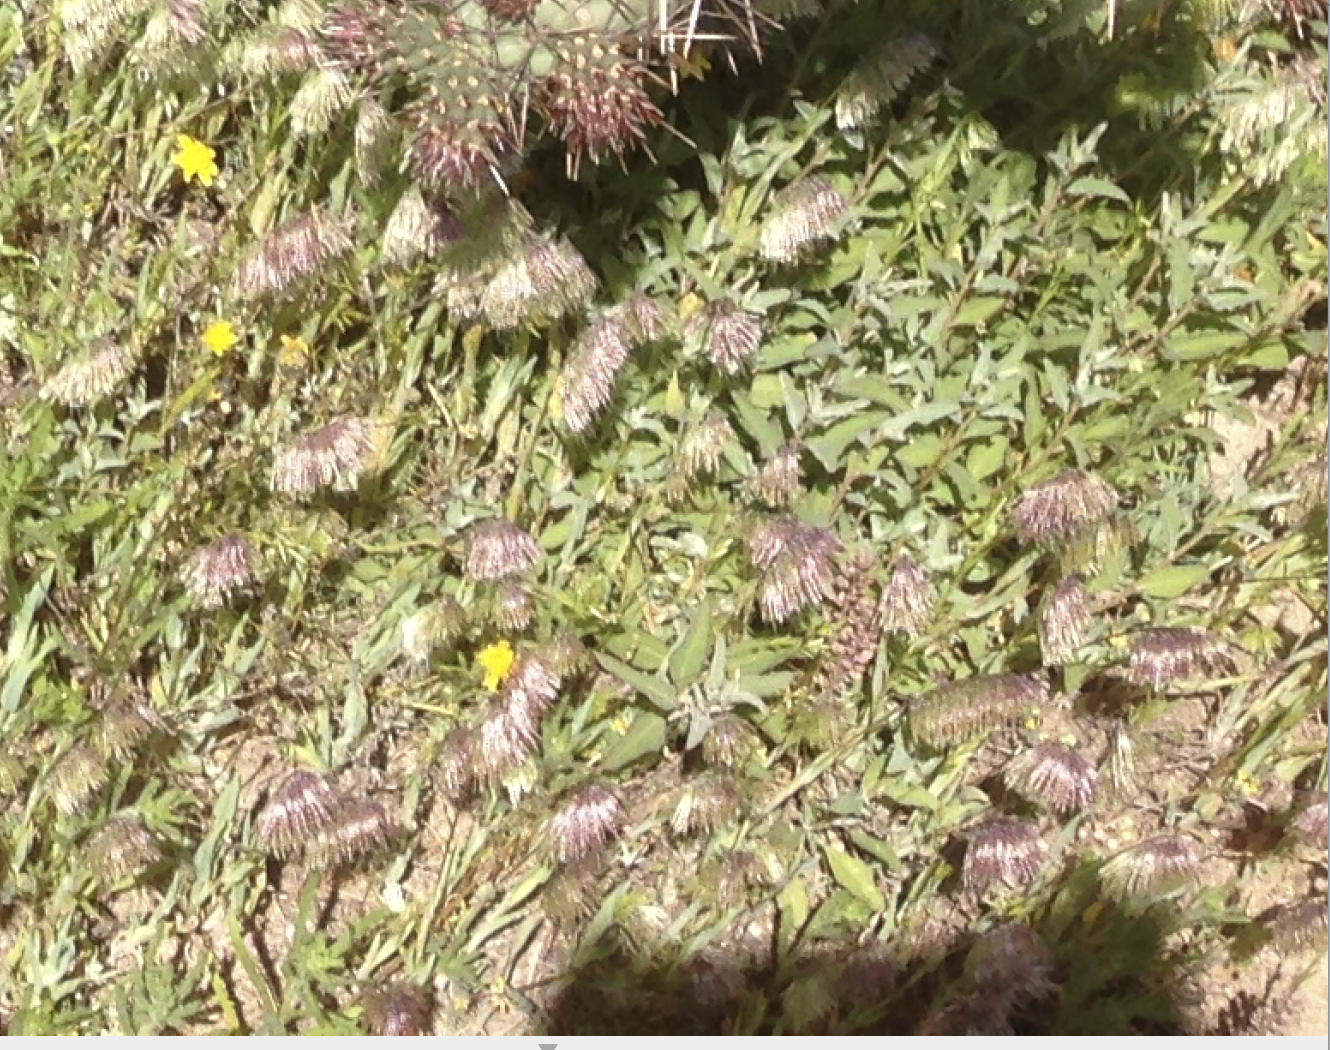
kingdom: Plantae
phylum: Tracheophyta
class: Liliopsida
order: Poales
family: Poaceae
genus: Lamarckia
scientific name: Lamarckia aurea
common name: Golden dog's-tail
